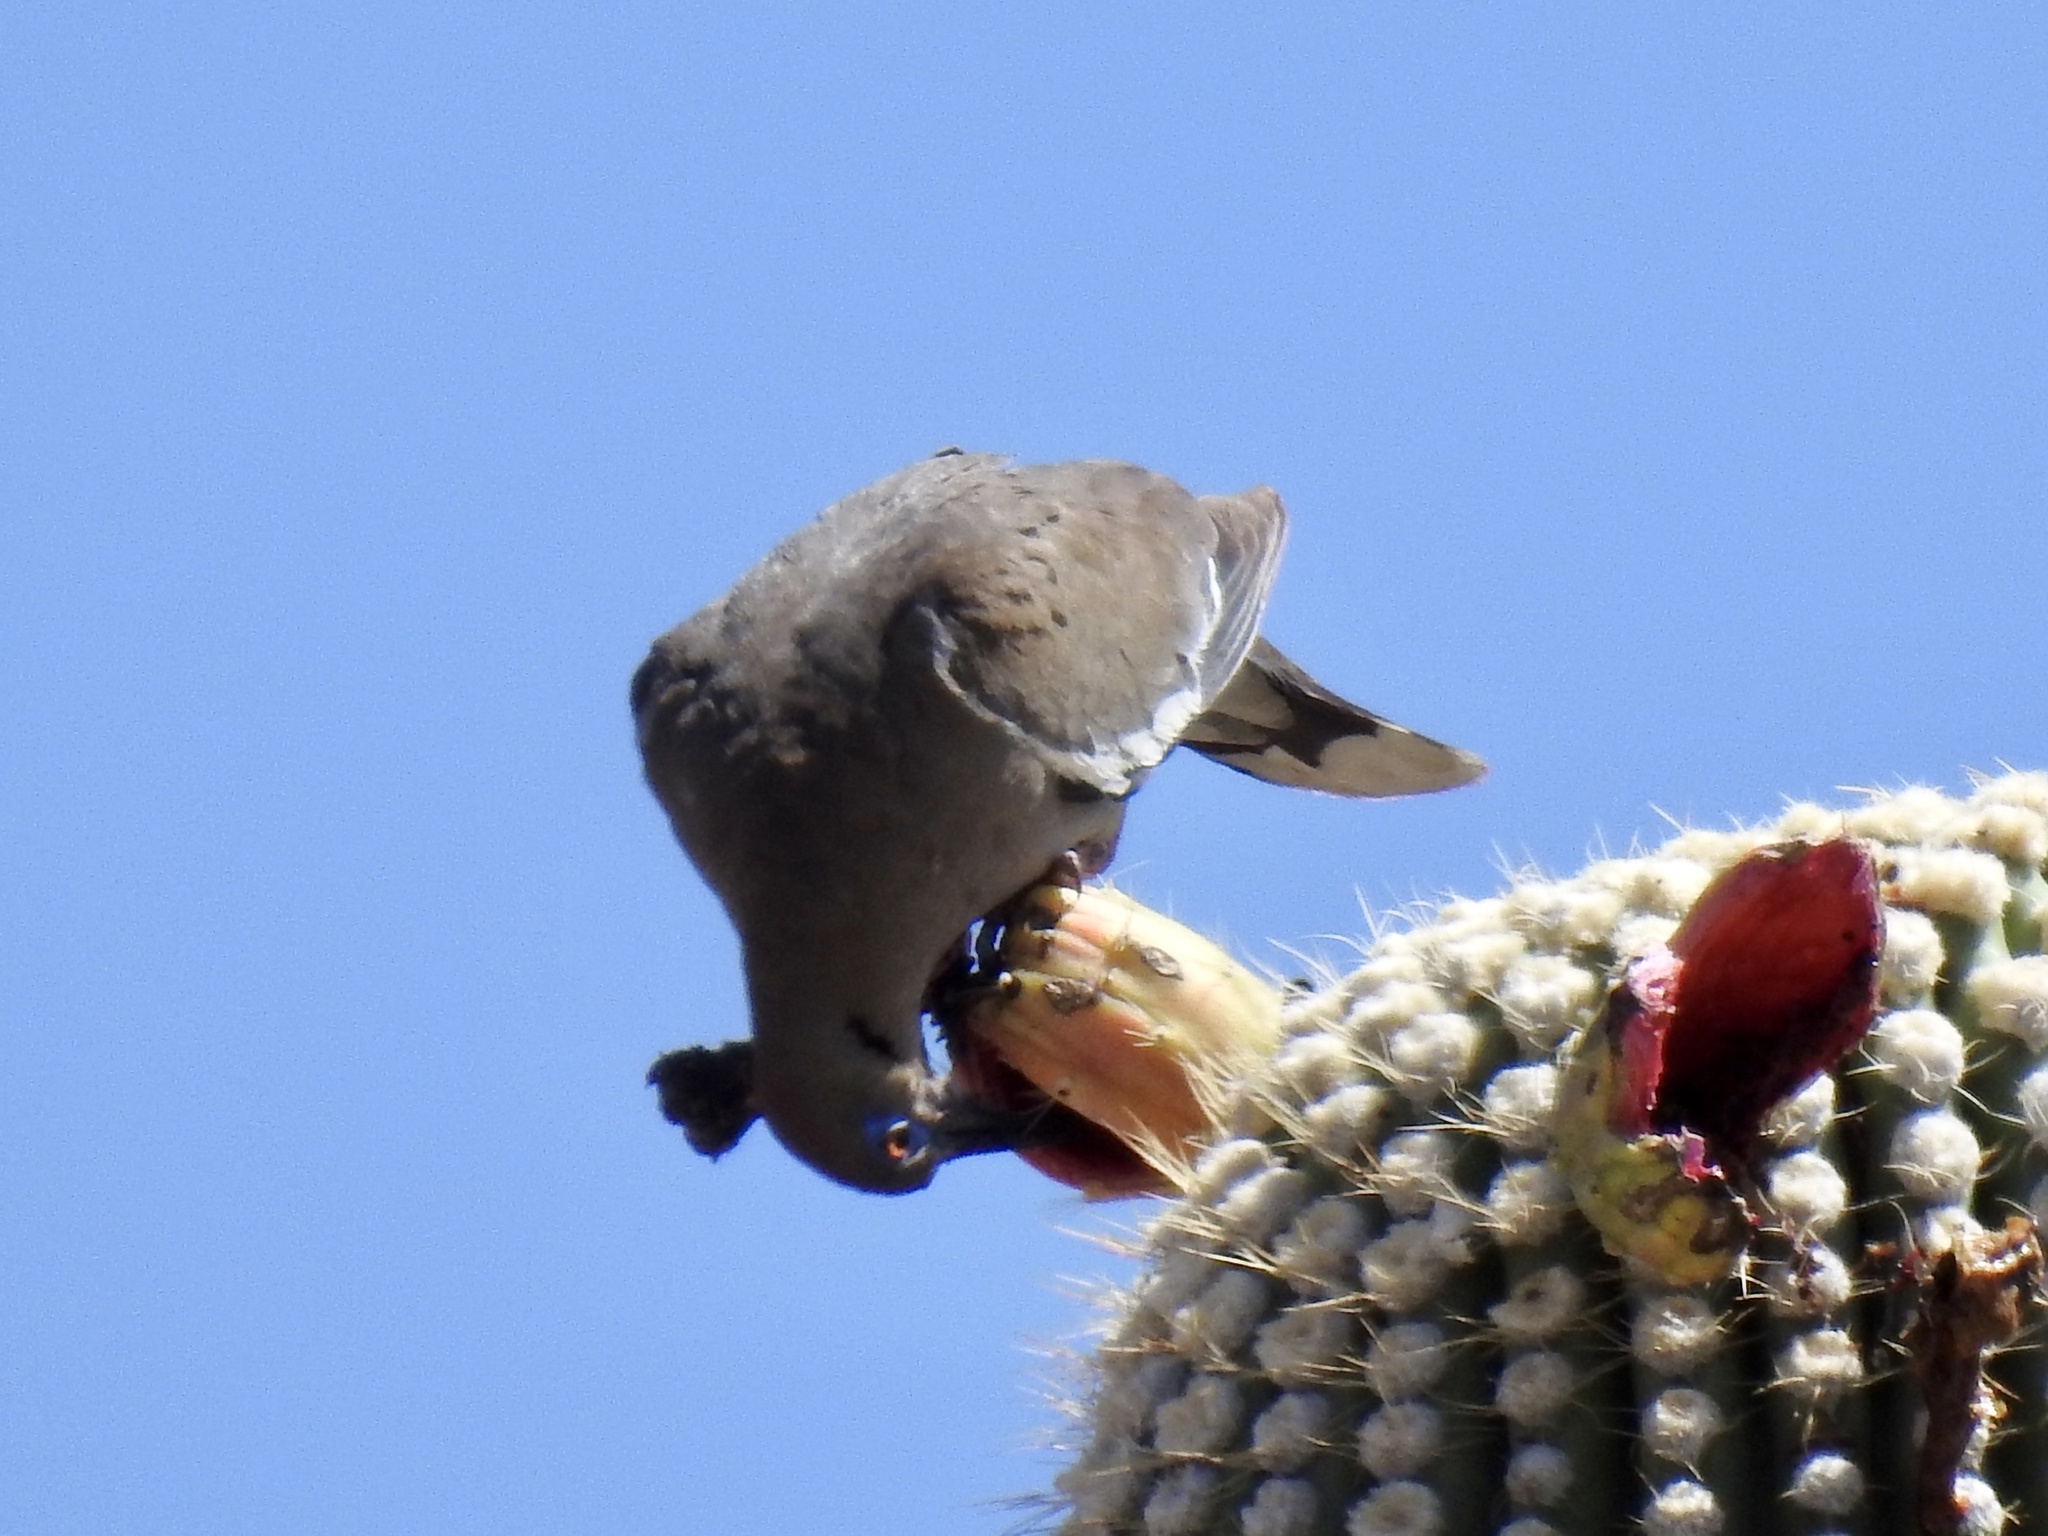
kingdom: Animalia
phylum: Chordata
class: Aves
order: Columbiformes
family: Columbidae
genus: Zenaida
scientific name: Zenaida asiatica
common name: White-winged dove
